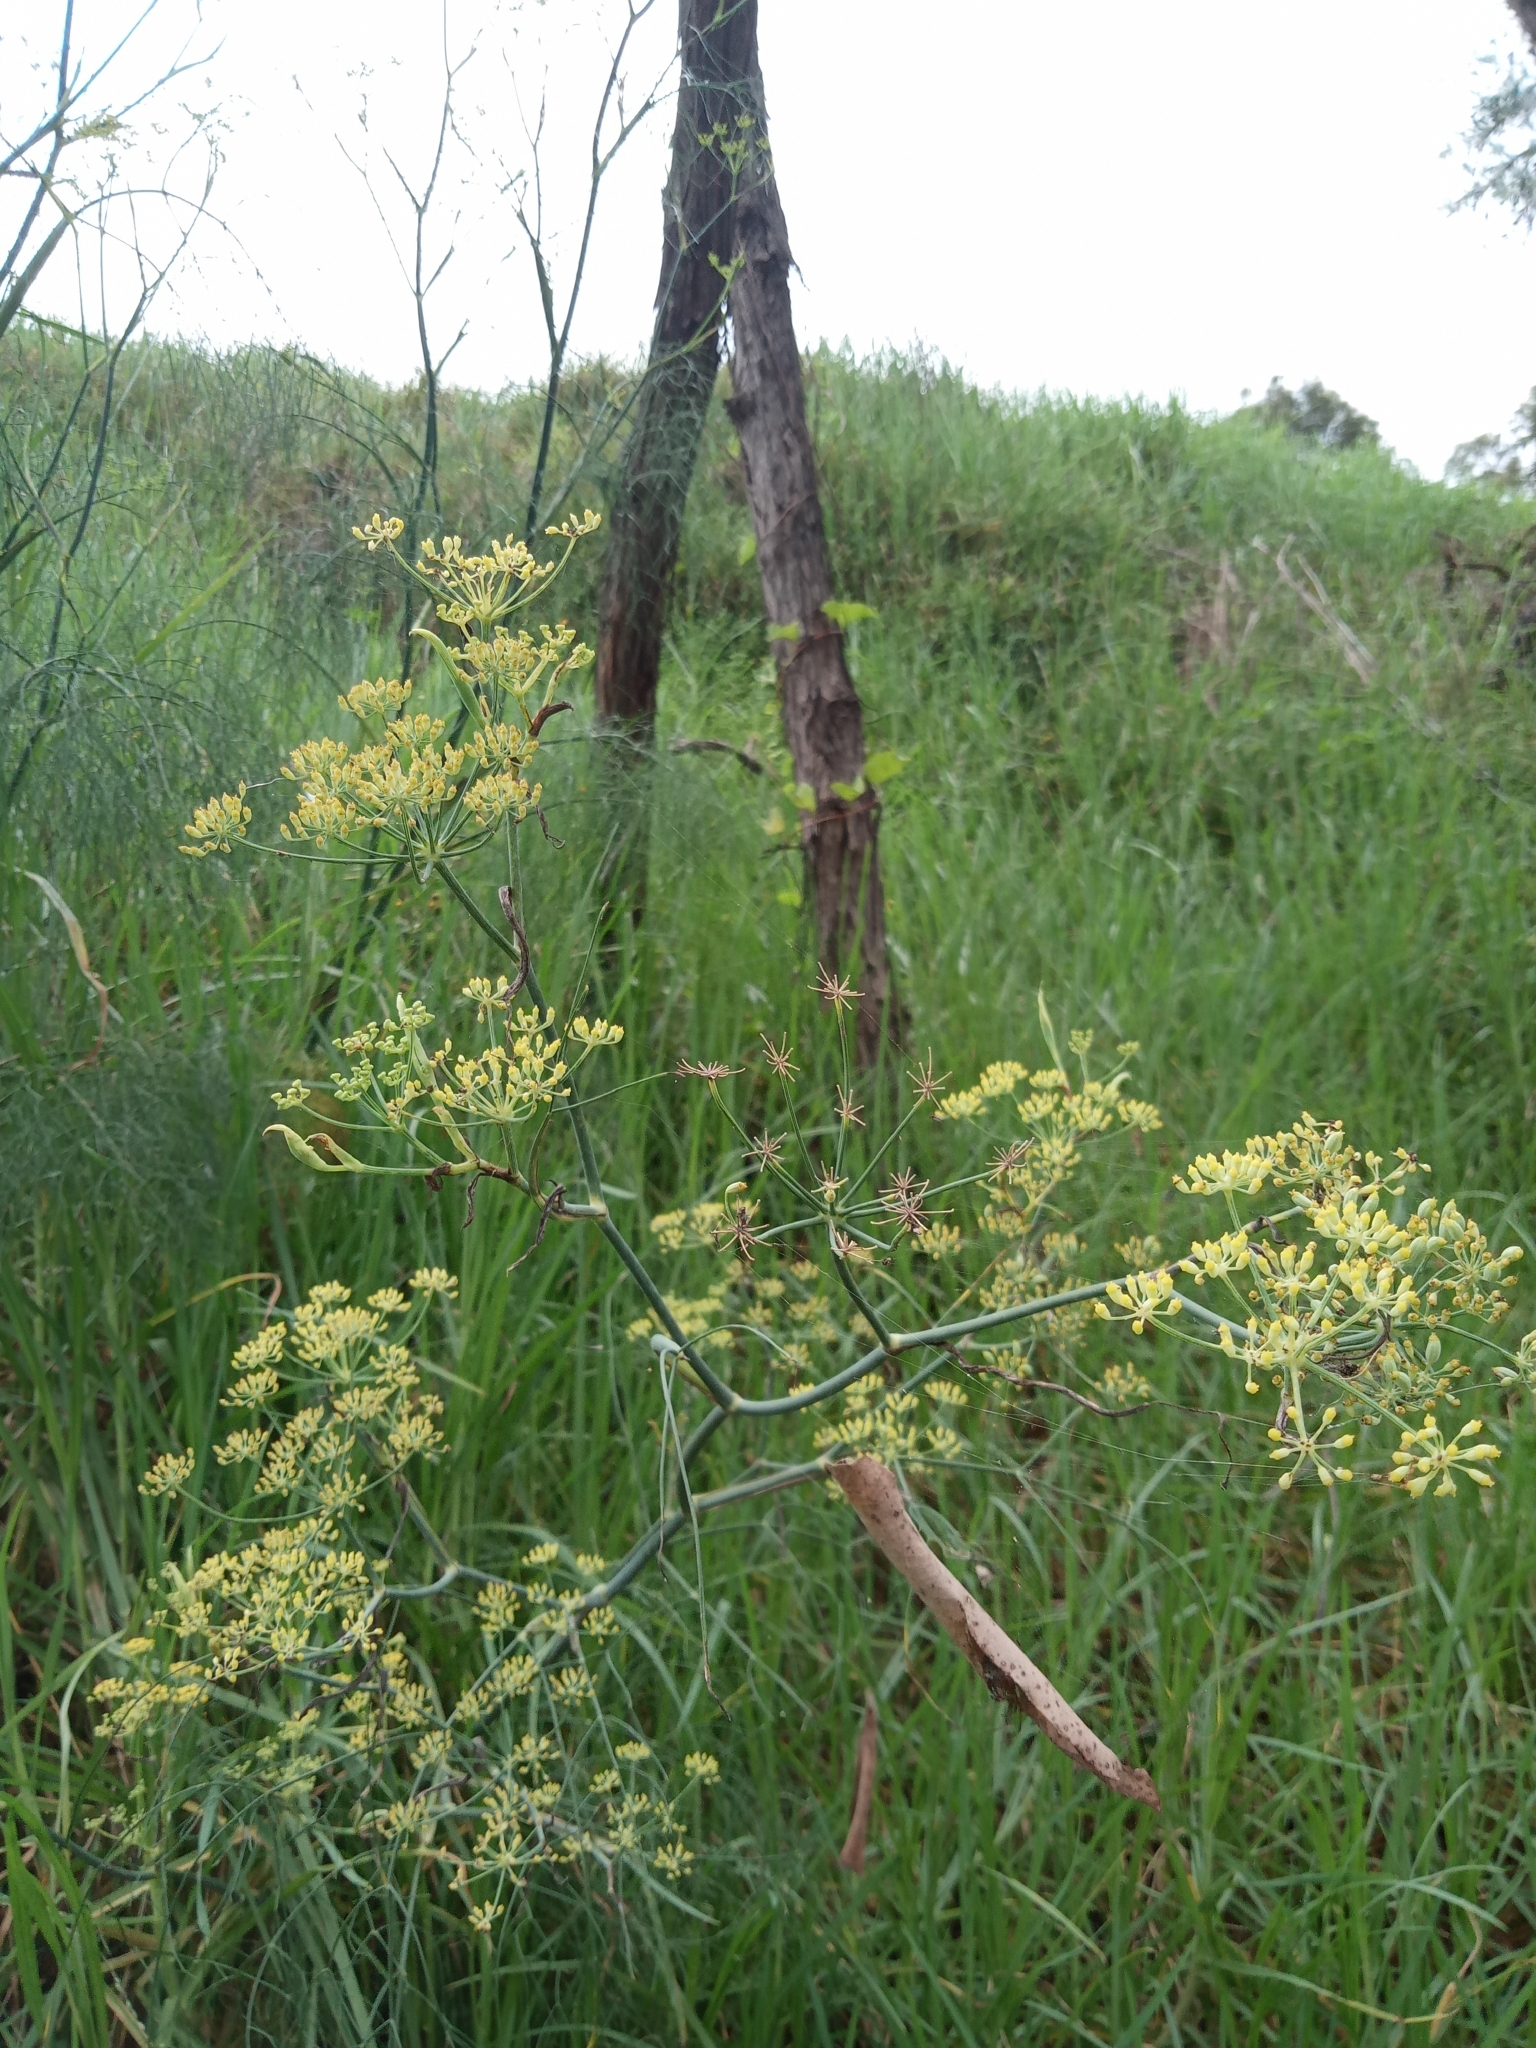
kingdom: Plantae
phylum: Tracheophyta
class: Magnoliopsida
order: Apiales
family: Apiaceae
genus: Foeniculum
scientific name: Foeniculum vulgare
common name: Fennel
